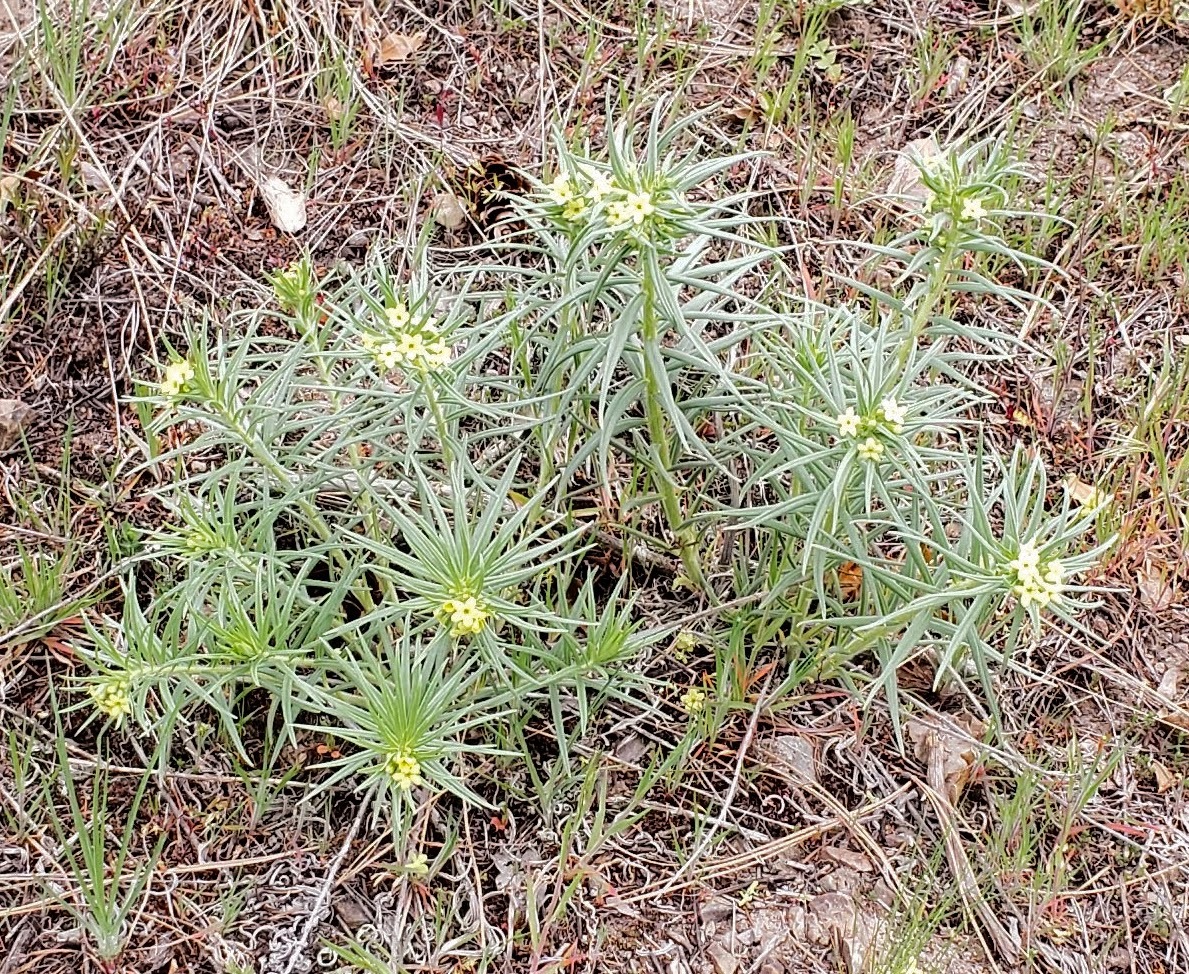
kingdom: Plantae
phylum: Tracheophyta
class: Magnoliopsida
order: Boraginales
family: Boraginaceae
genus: Lithospermum
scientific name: Lithospermum ruderale
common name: Western gromwell
